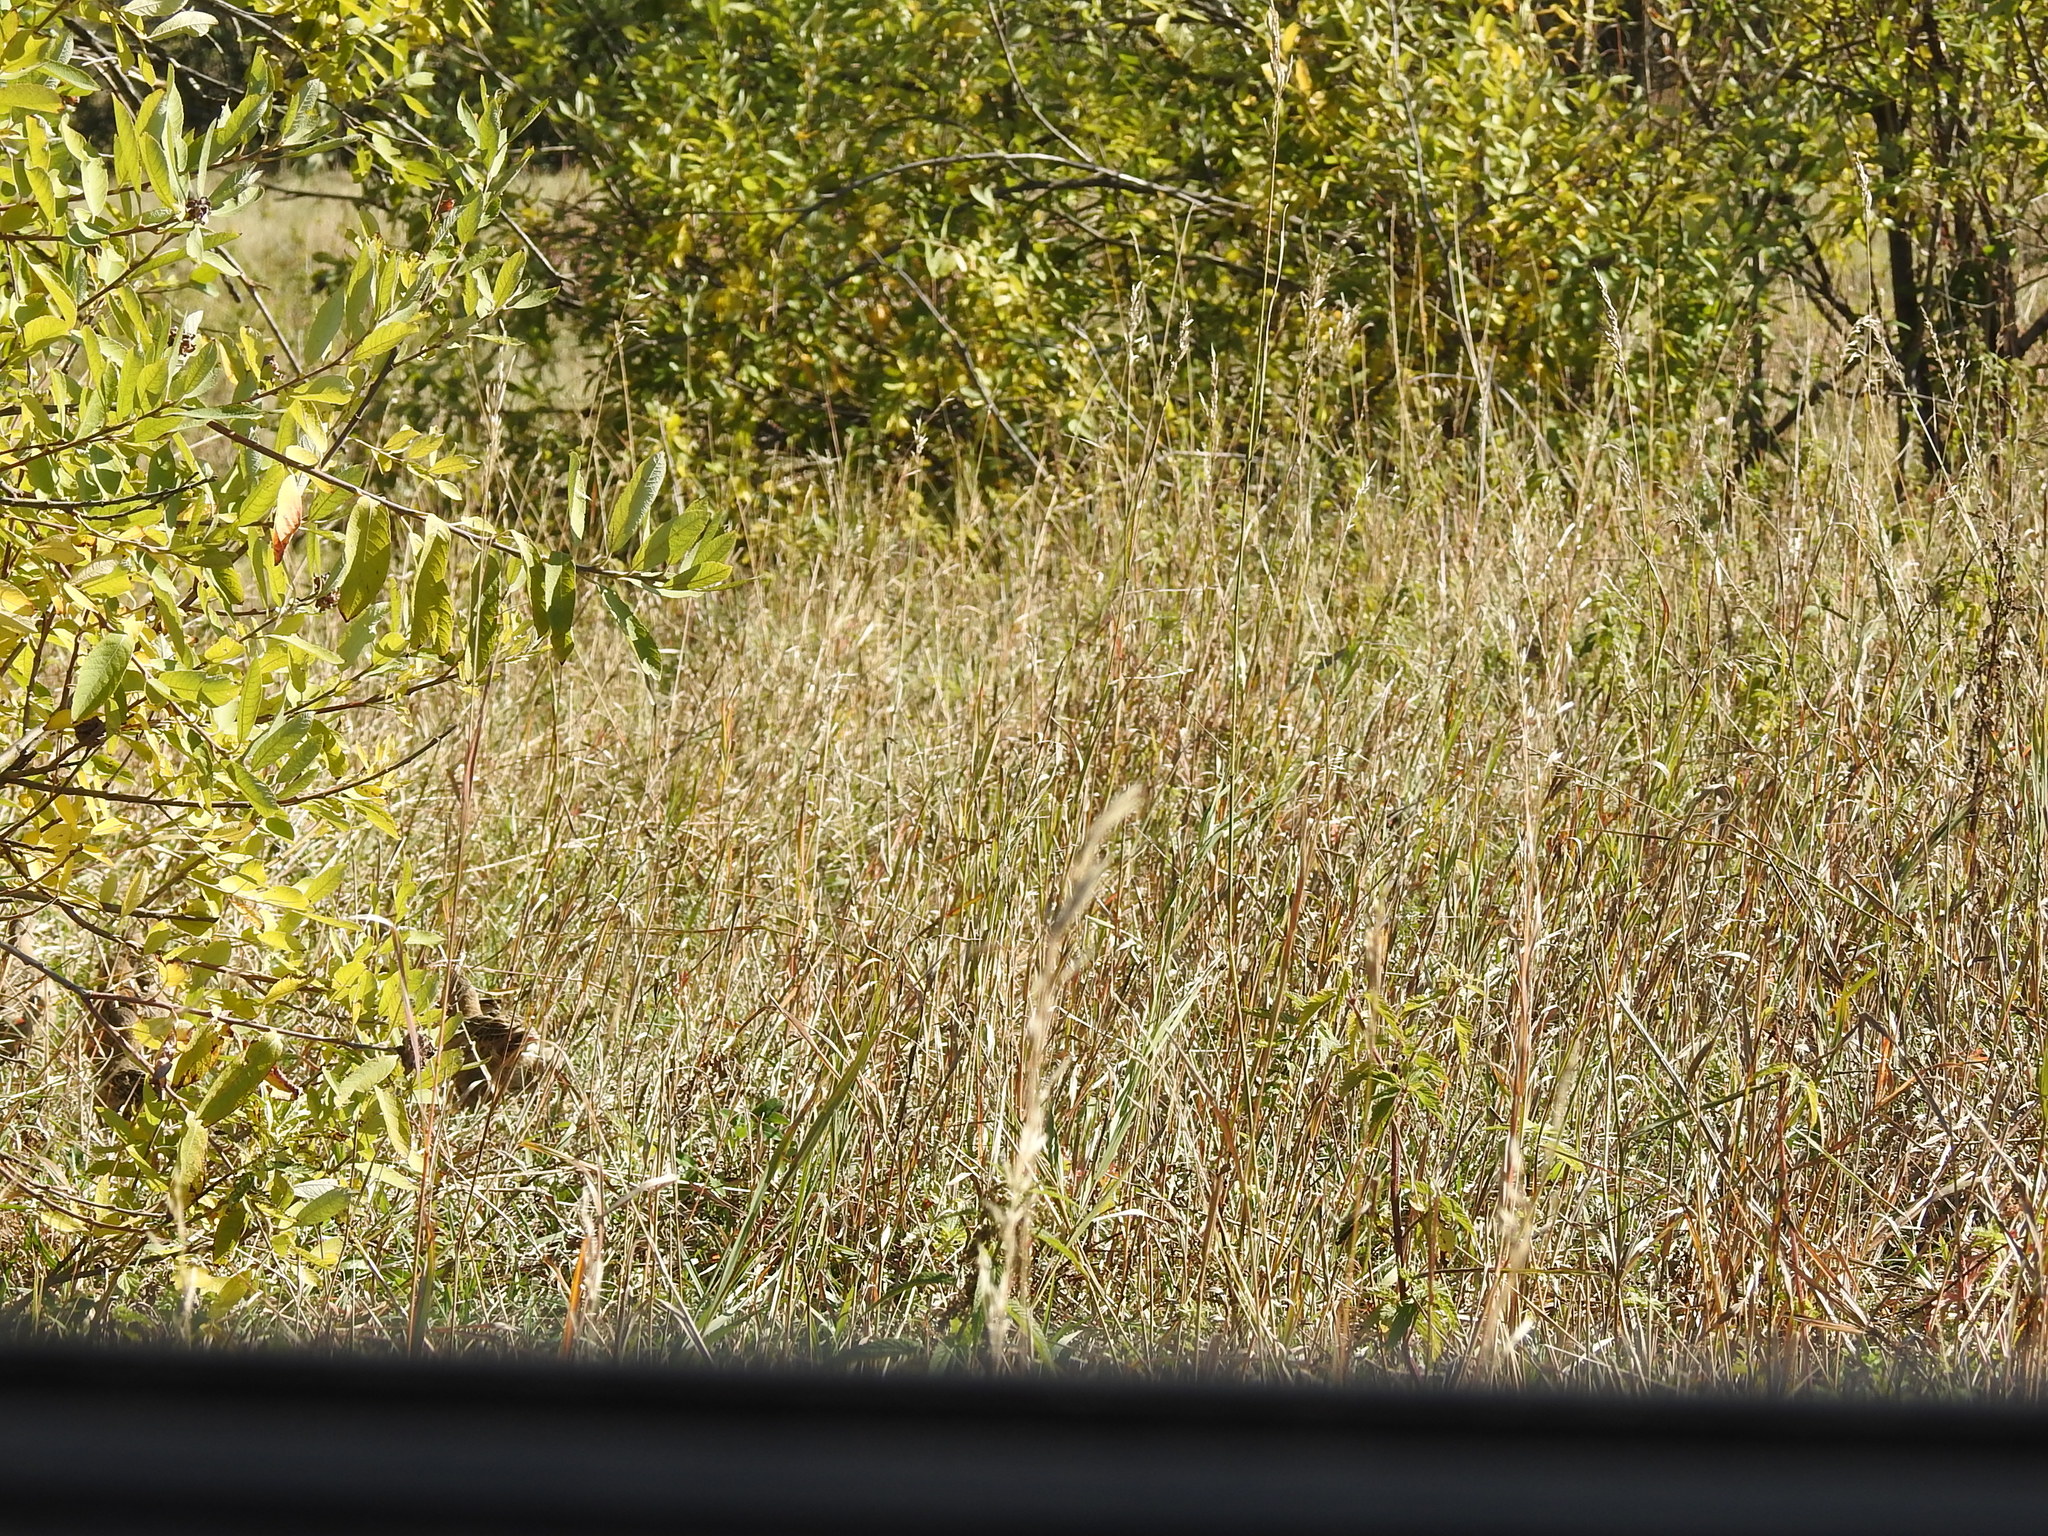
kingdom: Animalia
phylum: Chordata
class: Aves
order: Galliformes
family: Phasianidae
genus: Perdix
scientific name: Perdix perdix
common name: Grey partridge
